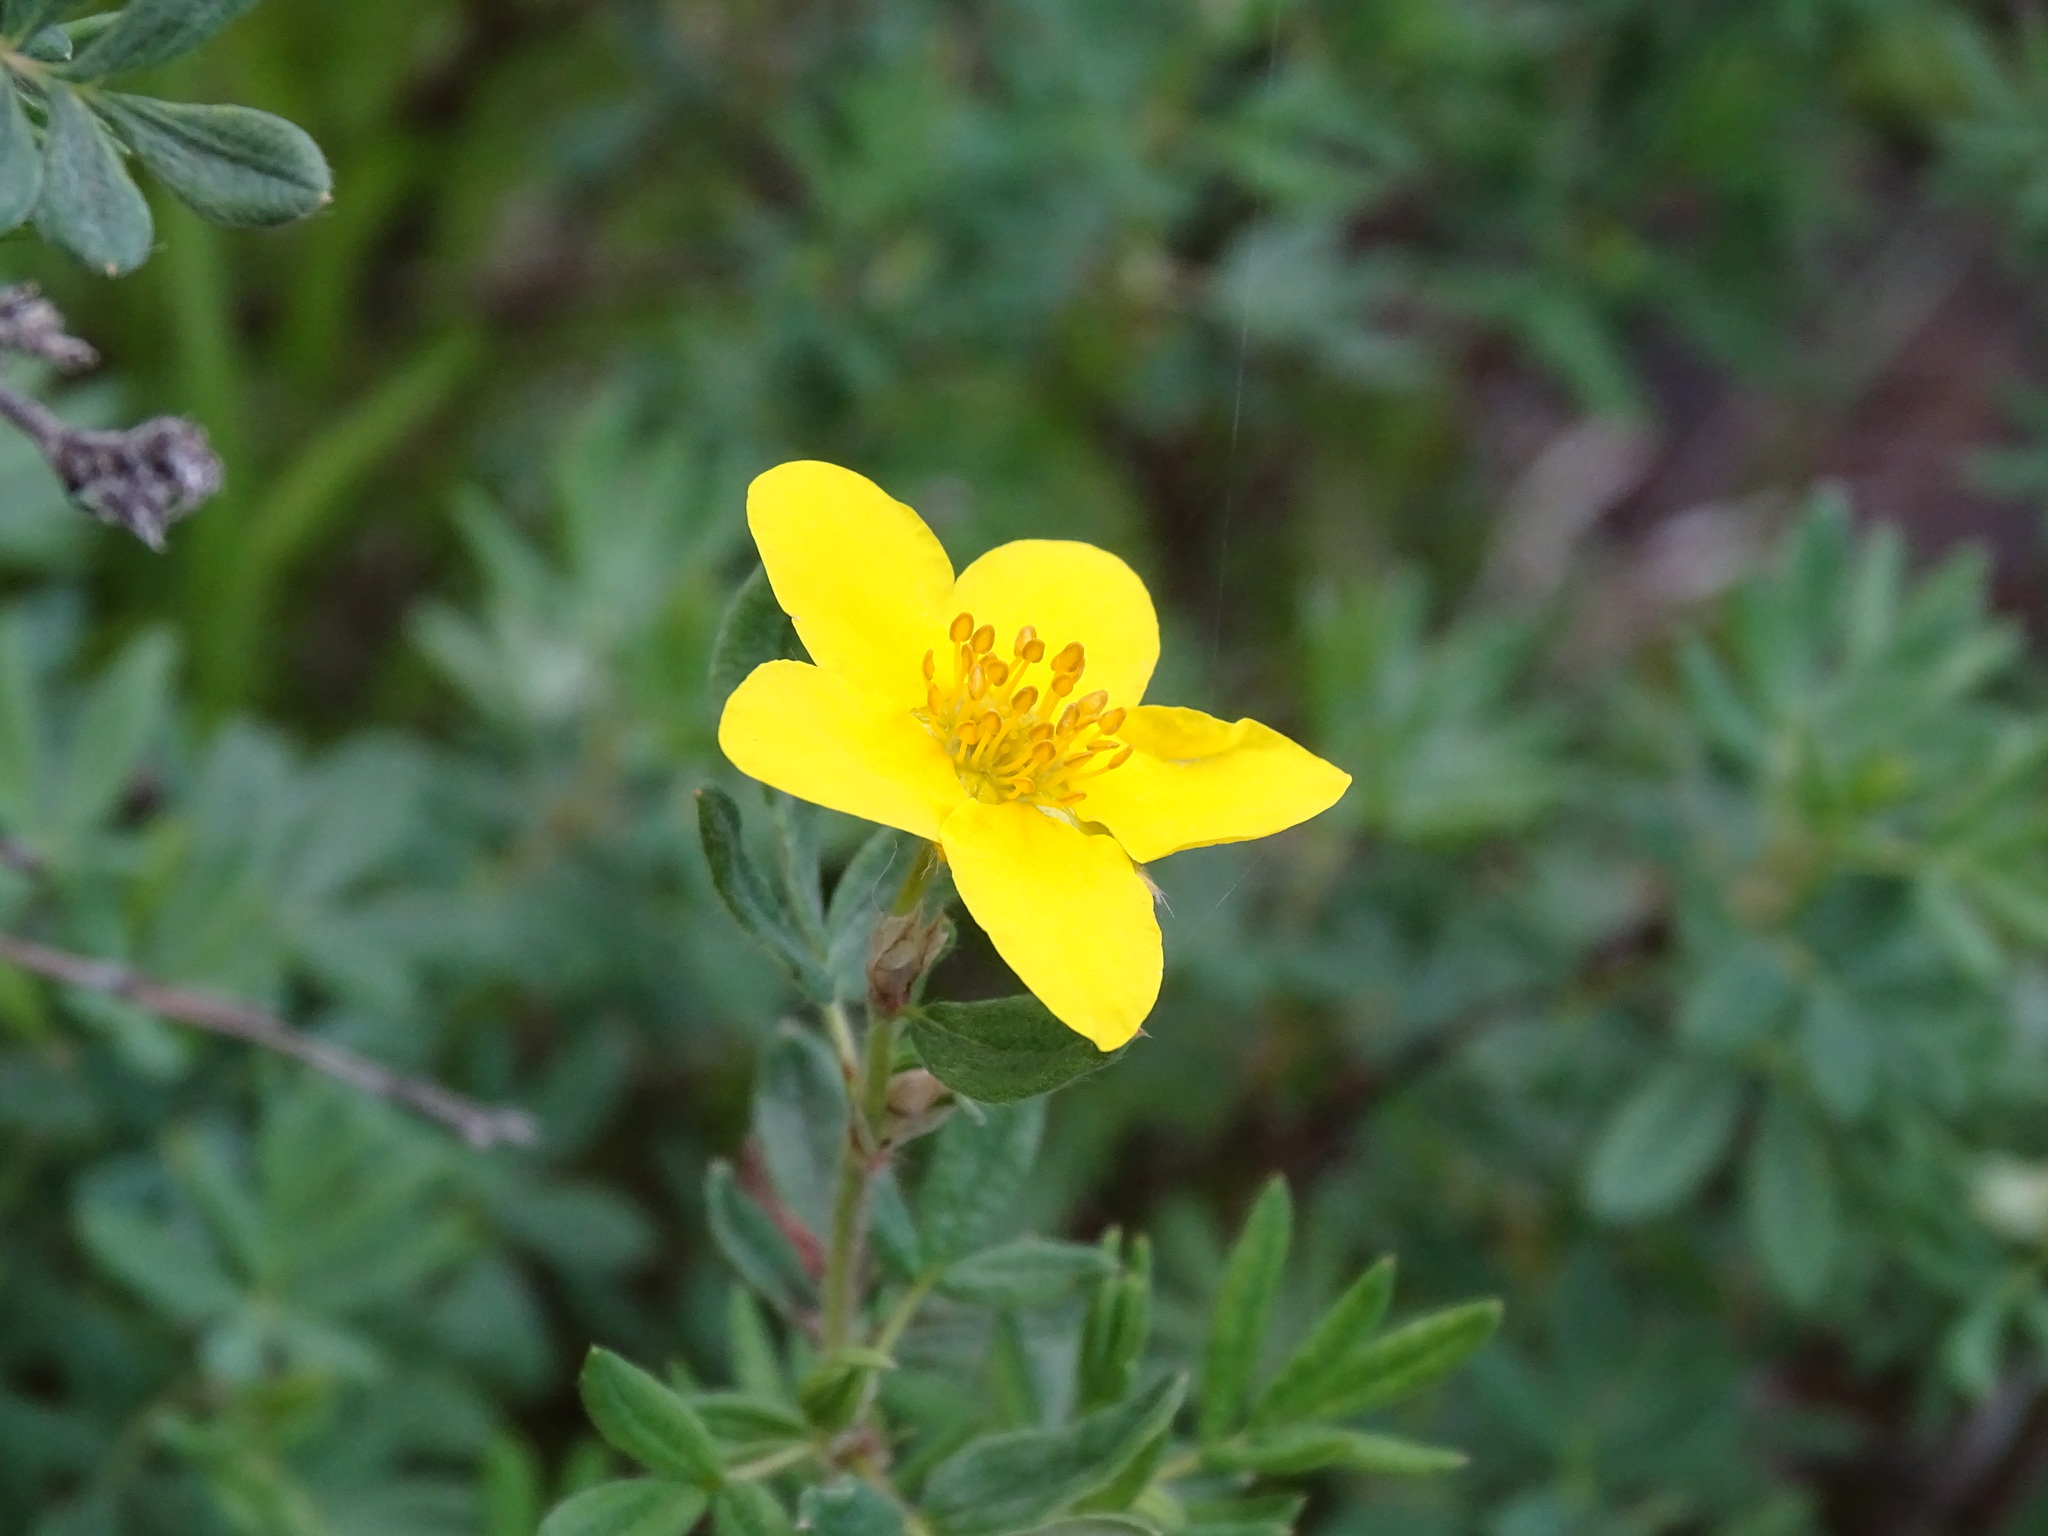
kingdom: Plantae
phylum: Tracheophyta
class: Magnoliopsida
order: Rosales
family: Rosaceae
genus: Dasiphora
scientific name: Dasiphora fruticosa
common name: Shrubby cinquefoil
